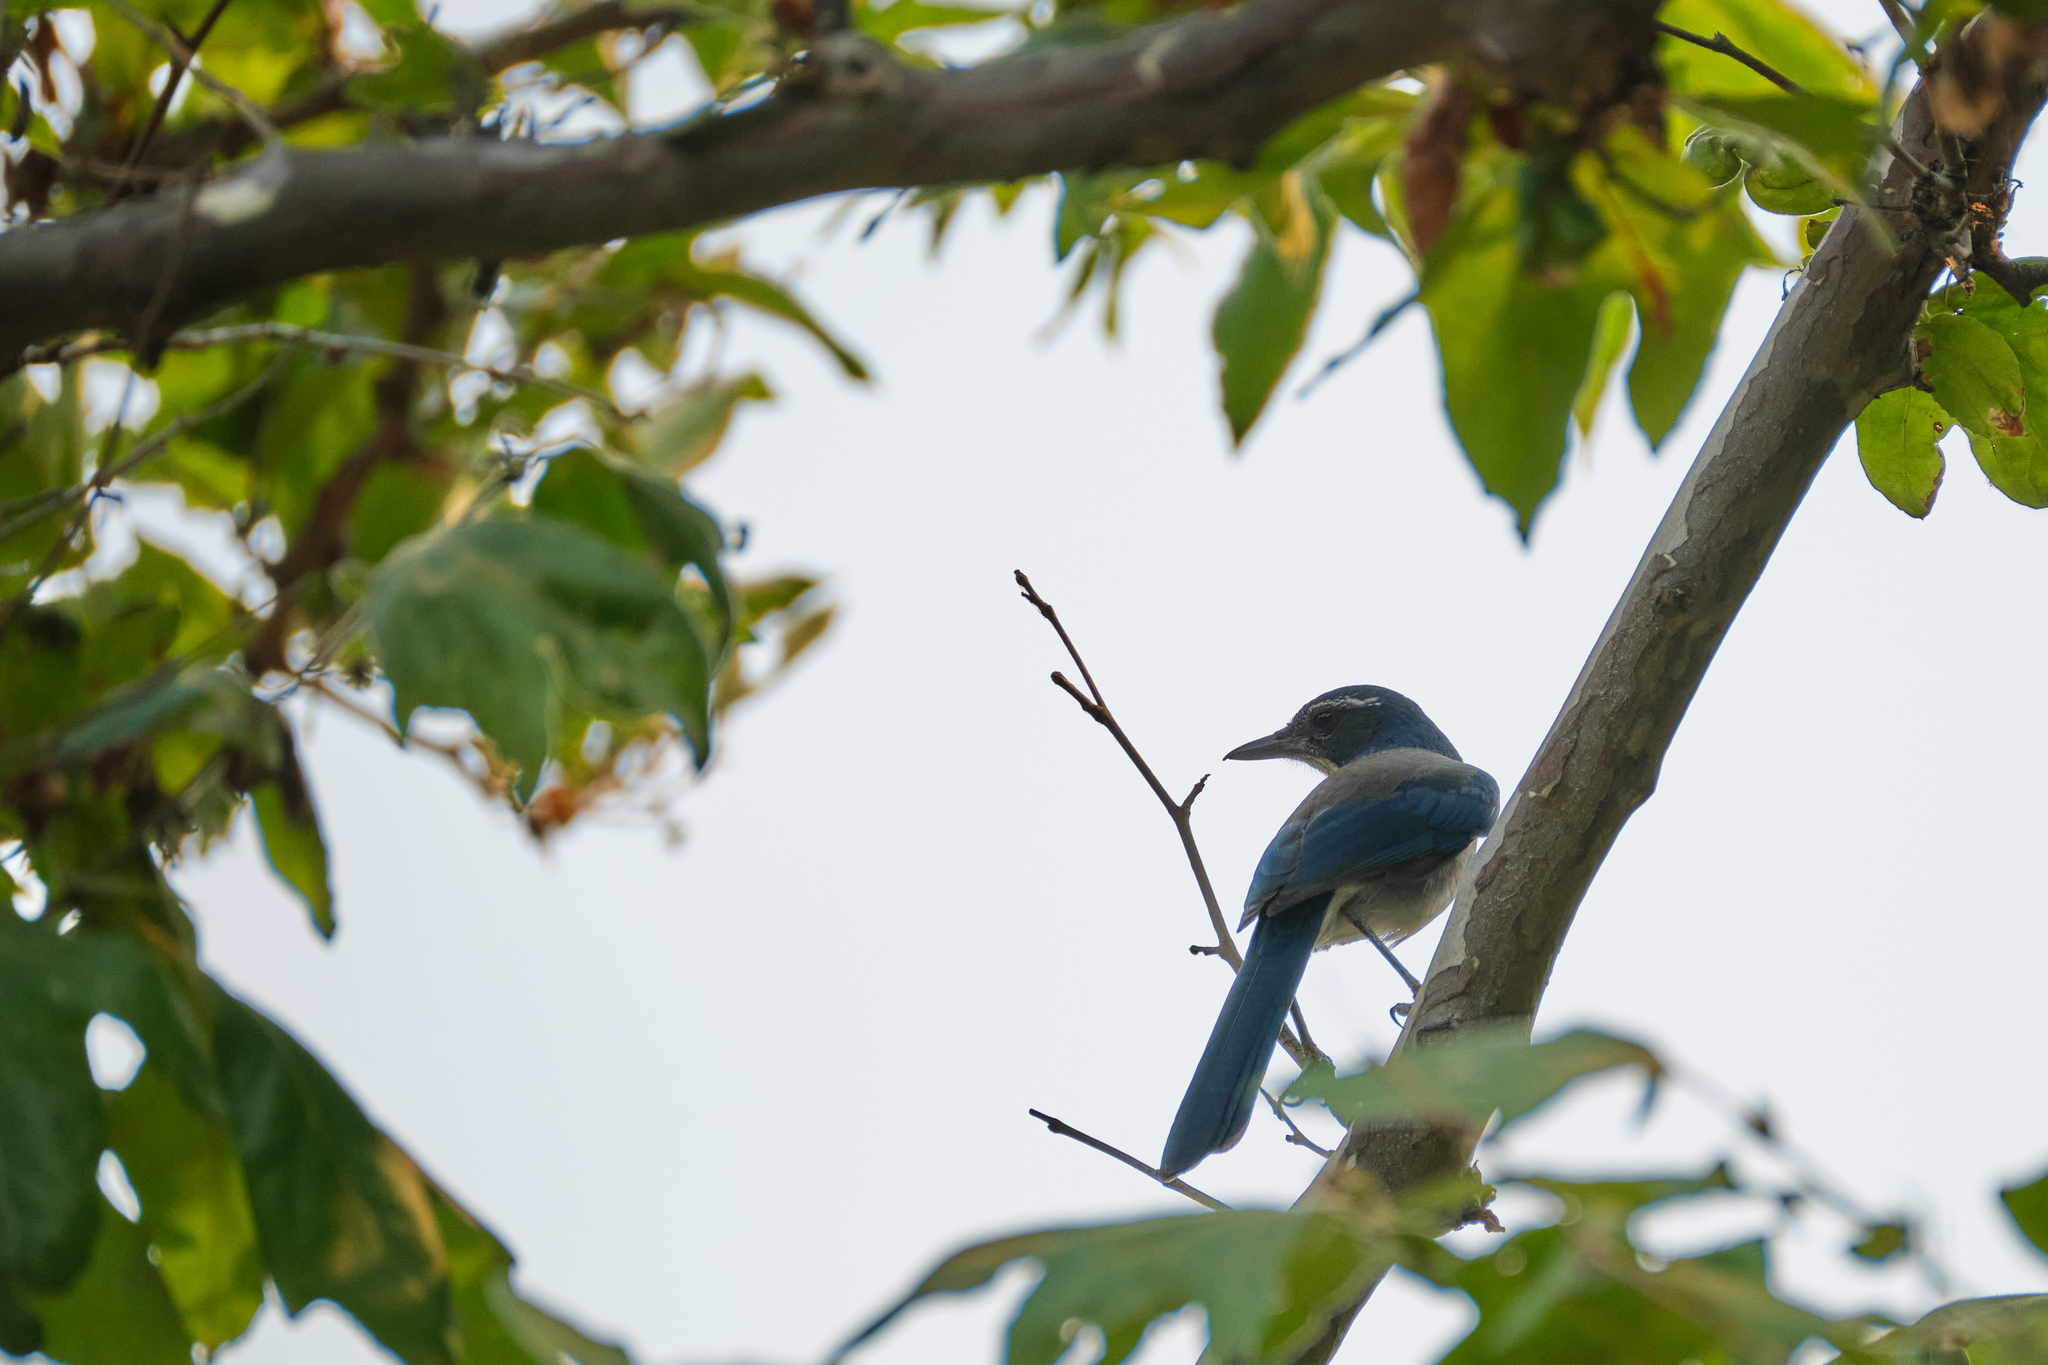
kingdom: Animalia
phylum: Chordata
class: Aves
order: Passeriformes
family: Corvidae
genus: Aphelocoma
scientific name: Aphelocoma californica
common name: California scrub-jay
